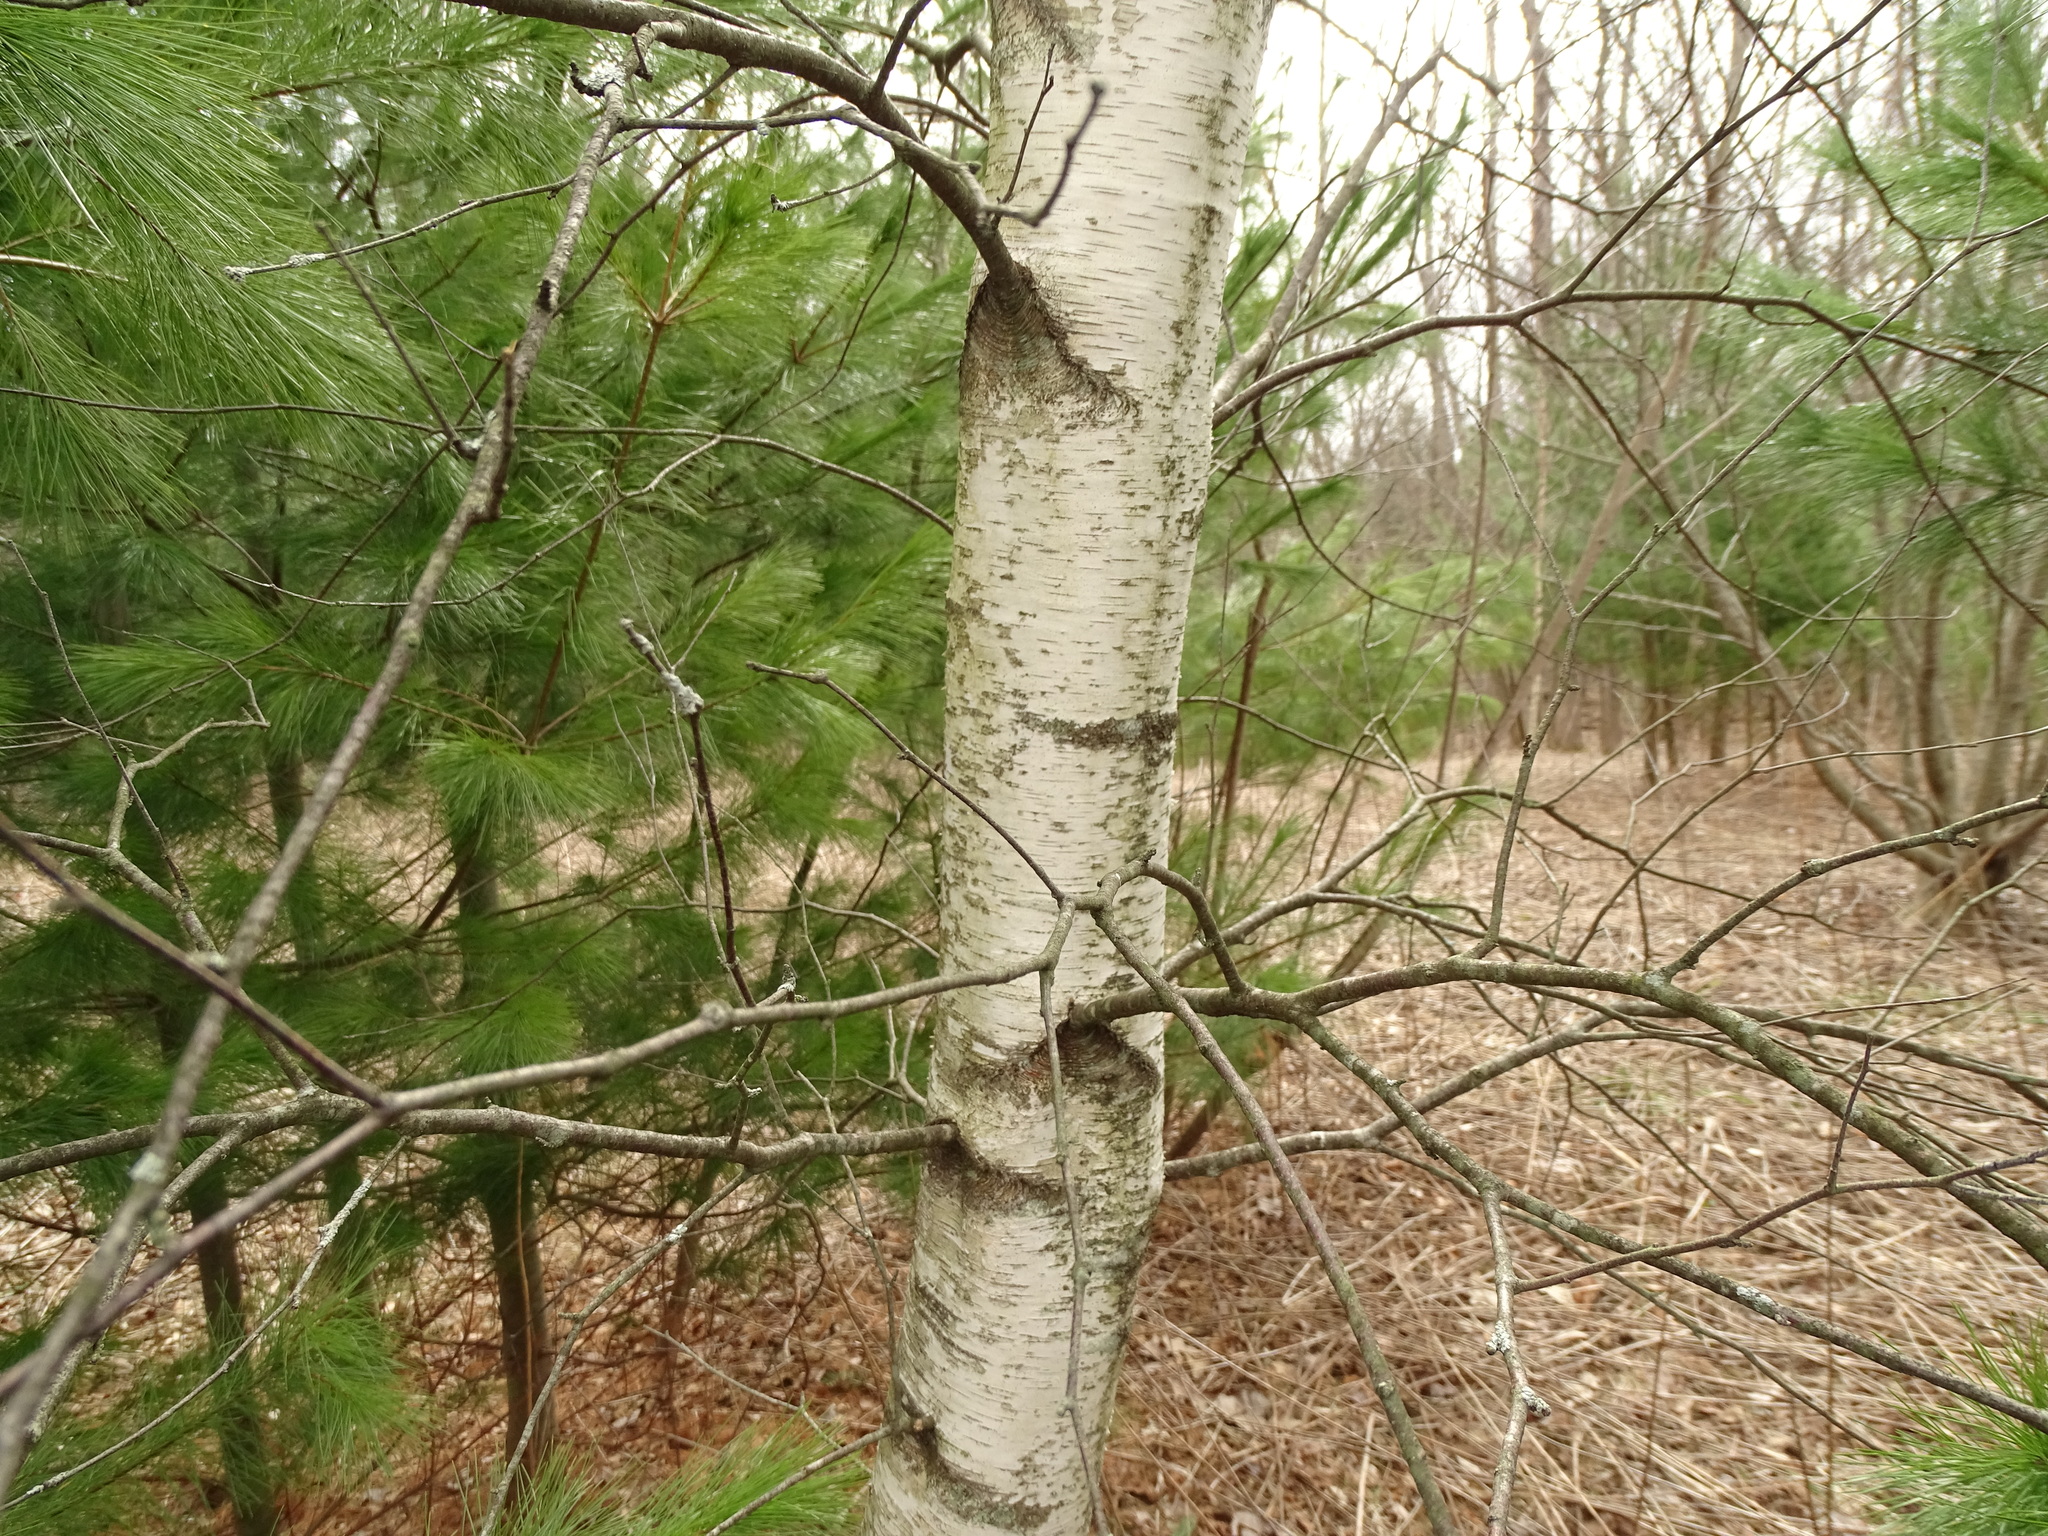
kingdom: Plantae
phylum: Tracheophyta
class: Magnoliopsida
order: Fagales
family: Betulaceae
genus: Betula
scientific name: Betula populifolia
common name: Fire birch
